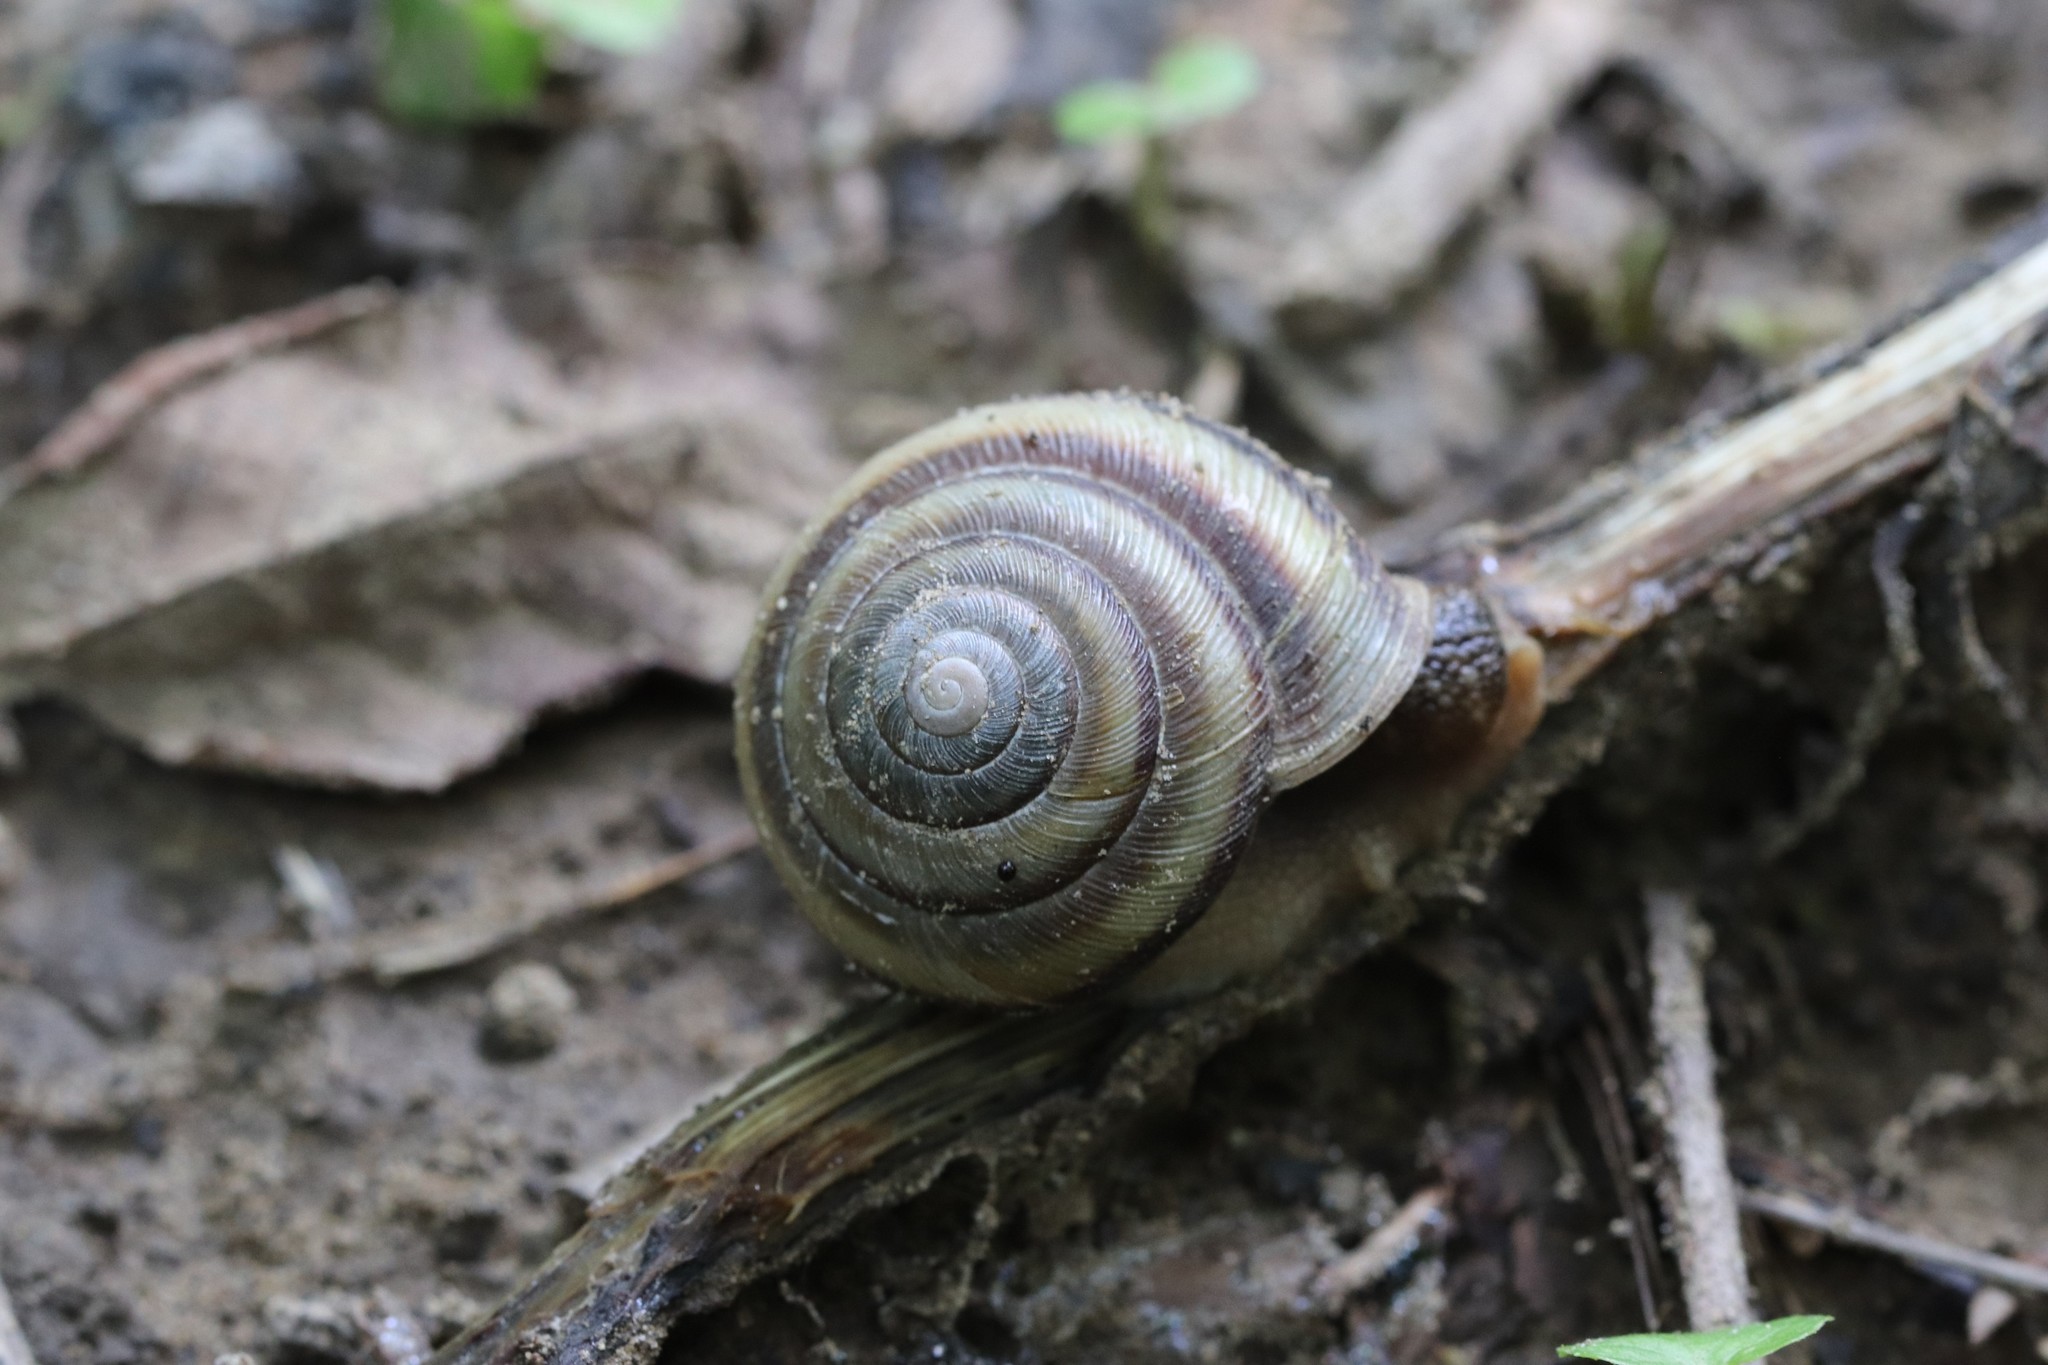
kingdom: Animalia
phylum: Mollusca
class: Gastropoda
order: Stylommatophora
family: Camaenidae
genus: Karaftohelix
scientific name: Karaftohelix maackii
